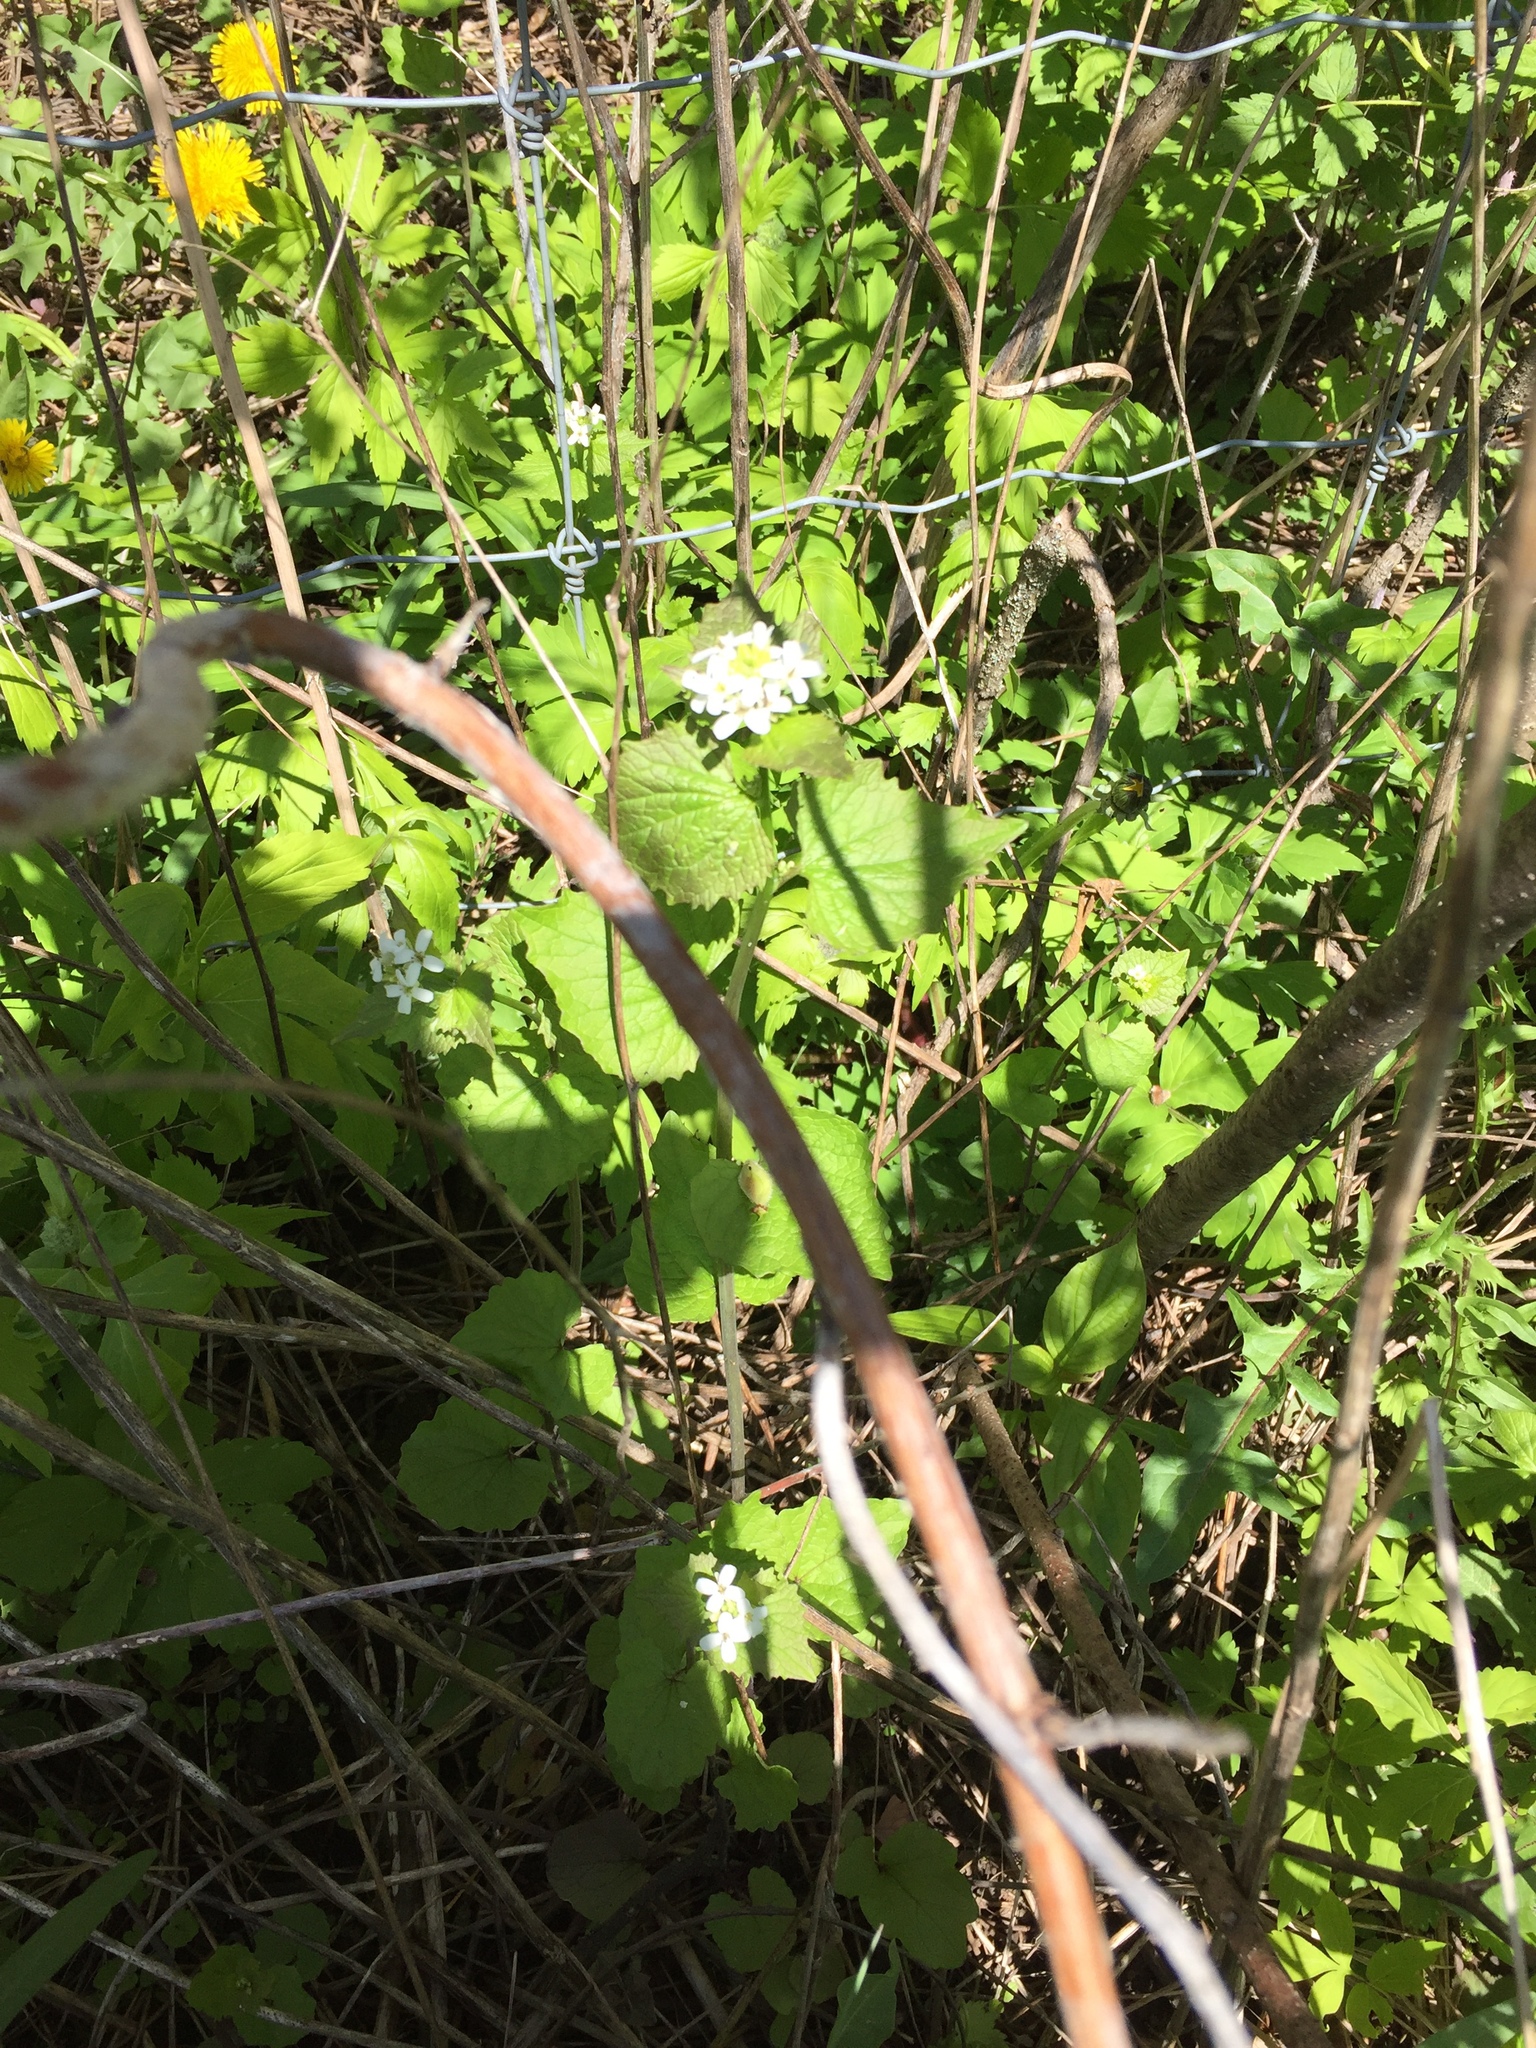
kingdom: Plantae
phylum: Tracheophyta
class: Magnoliopsida
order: Brassicales
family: Brassicaceae
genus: Alliaria
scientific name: Alliaria petiolata
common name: Garlic mustard
